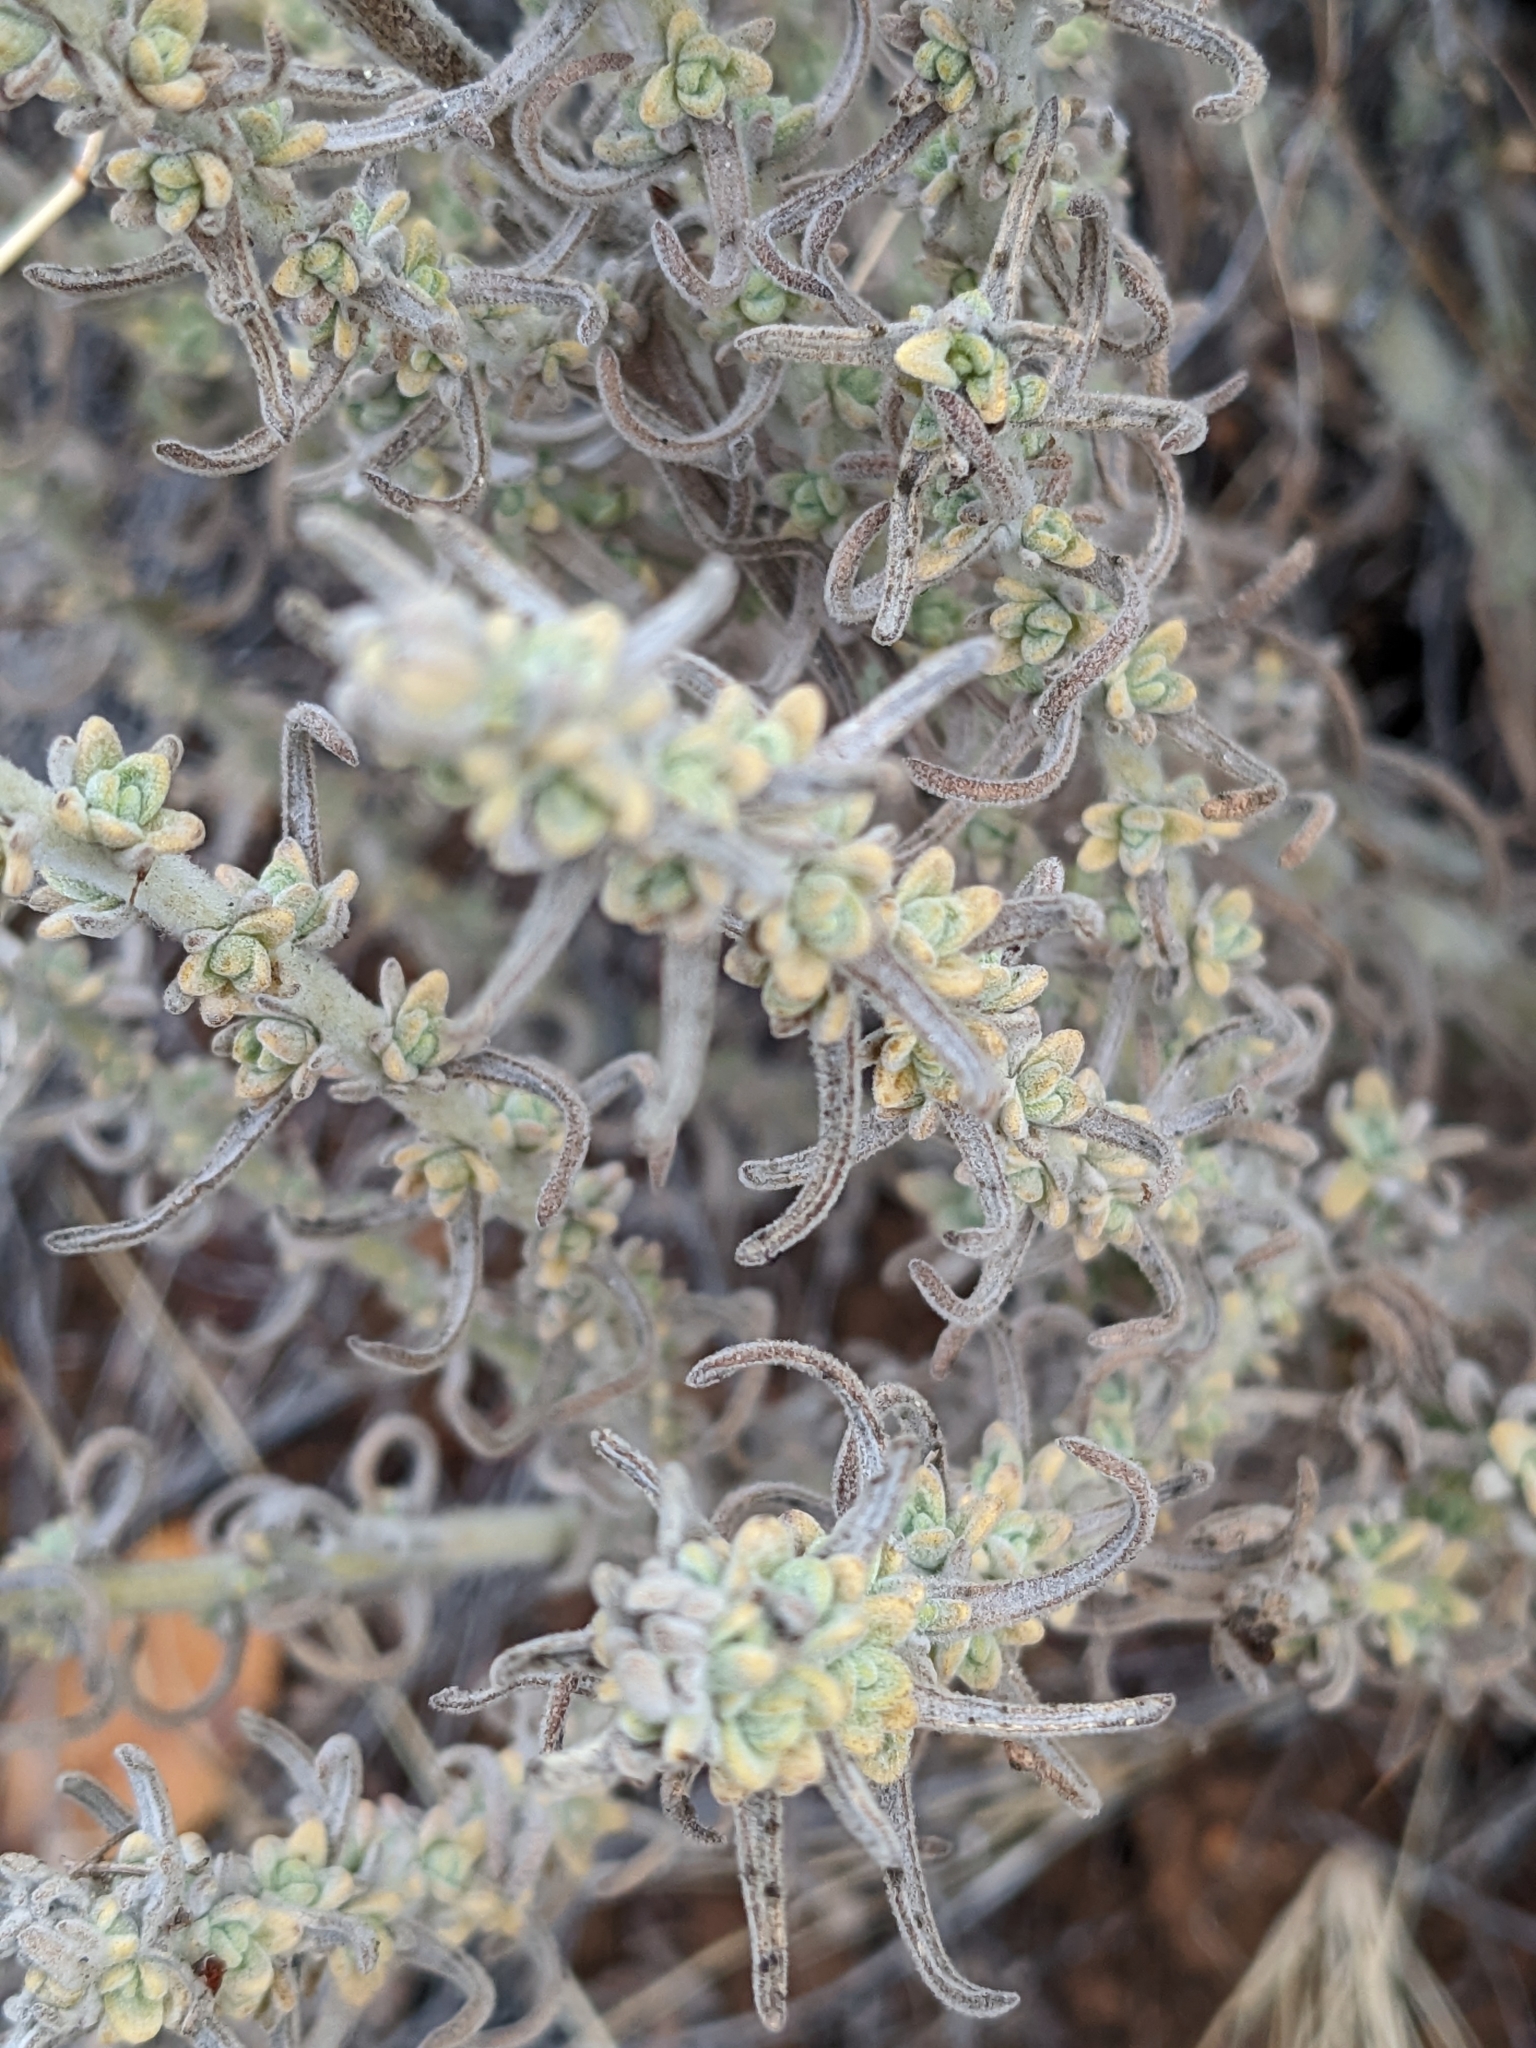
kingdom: Plantae
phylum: Tracheophyta
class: Magnoliopsida
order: Lamiales
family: Orobanchaceae
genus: Castilleja
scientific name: Castilleja foliolosa
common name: Woolly indian paintbrush
